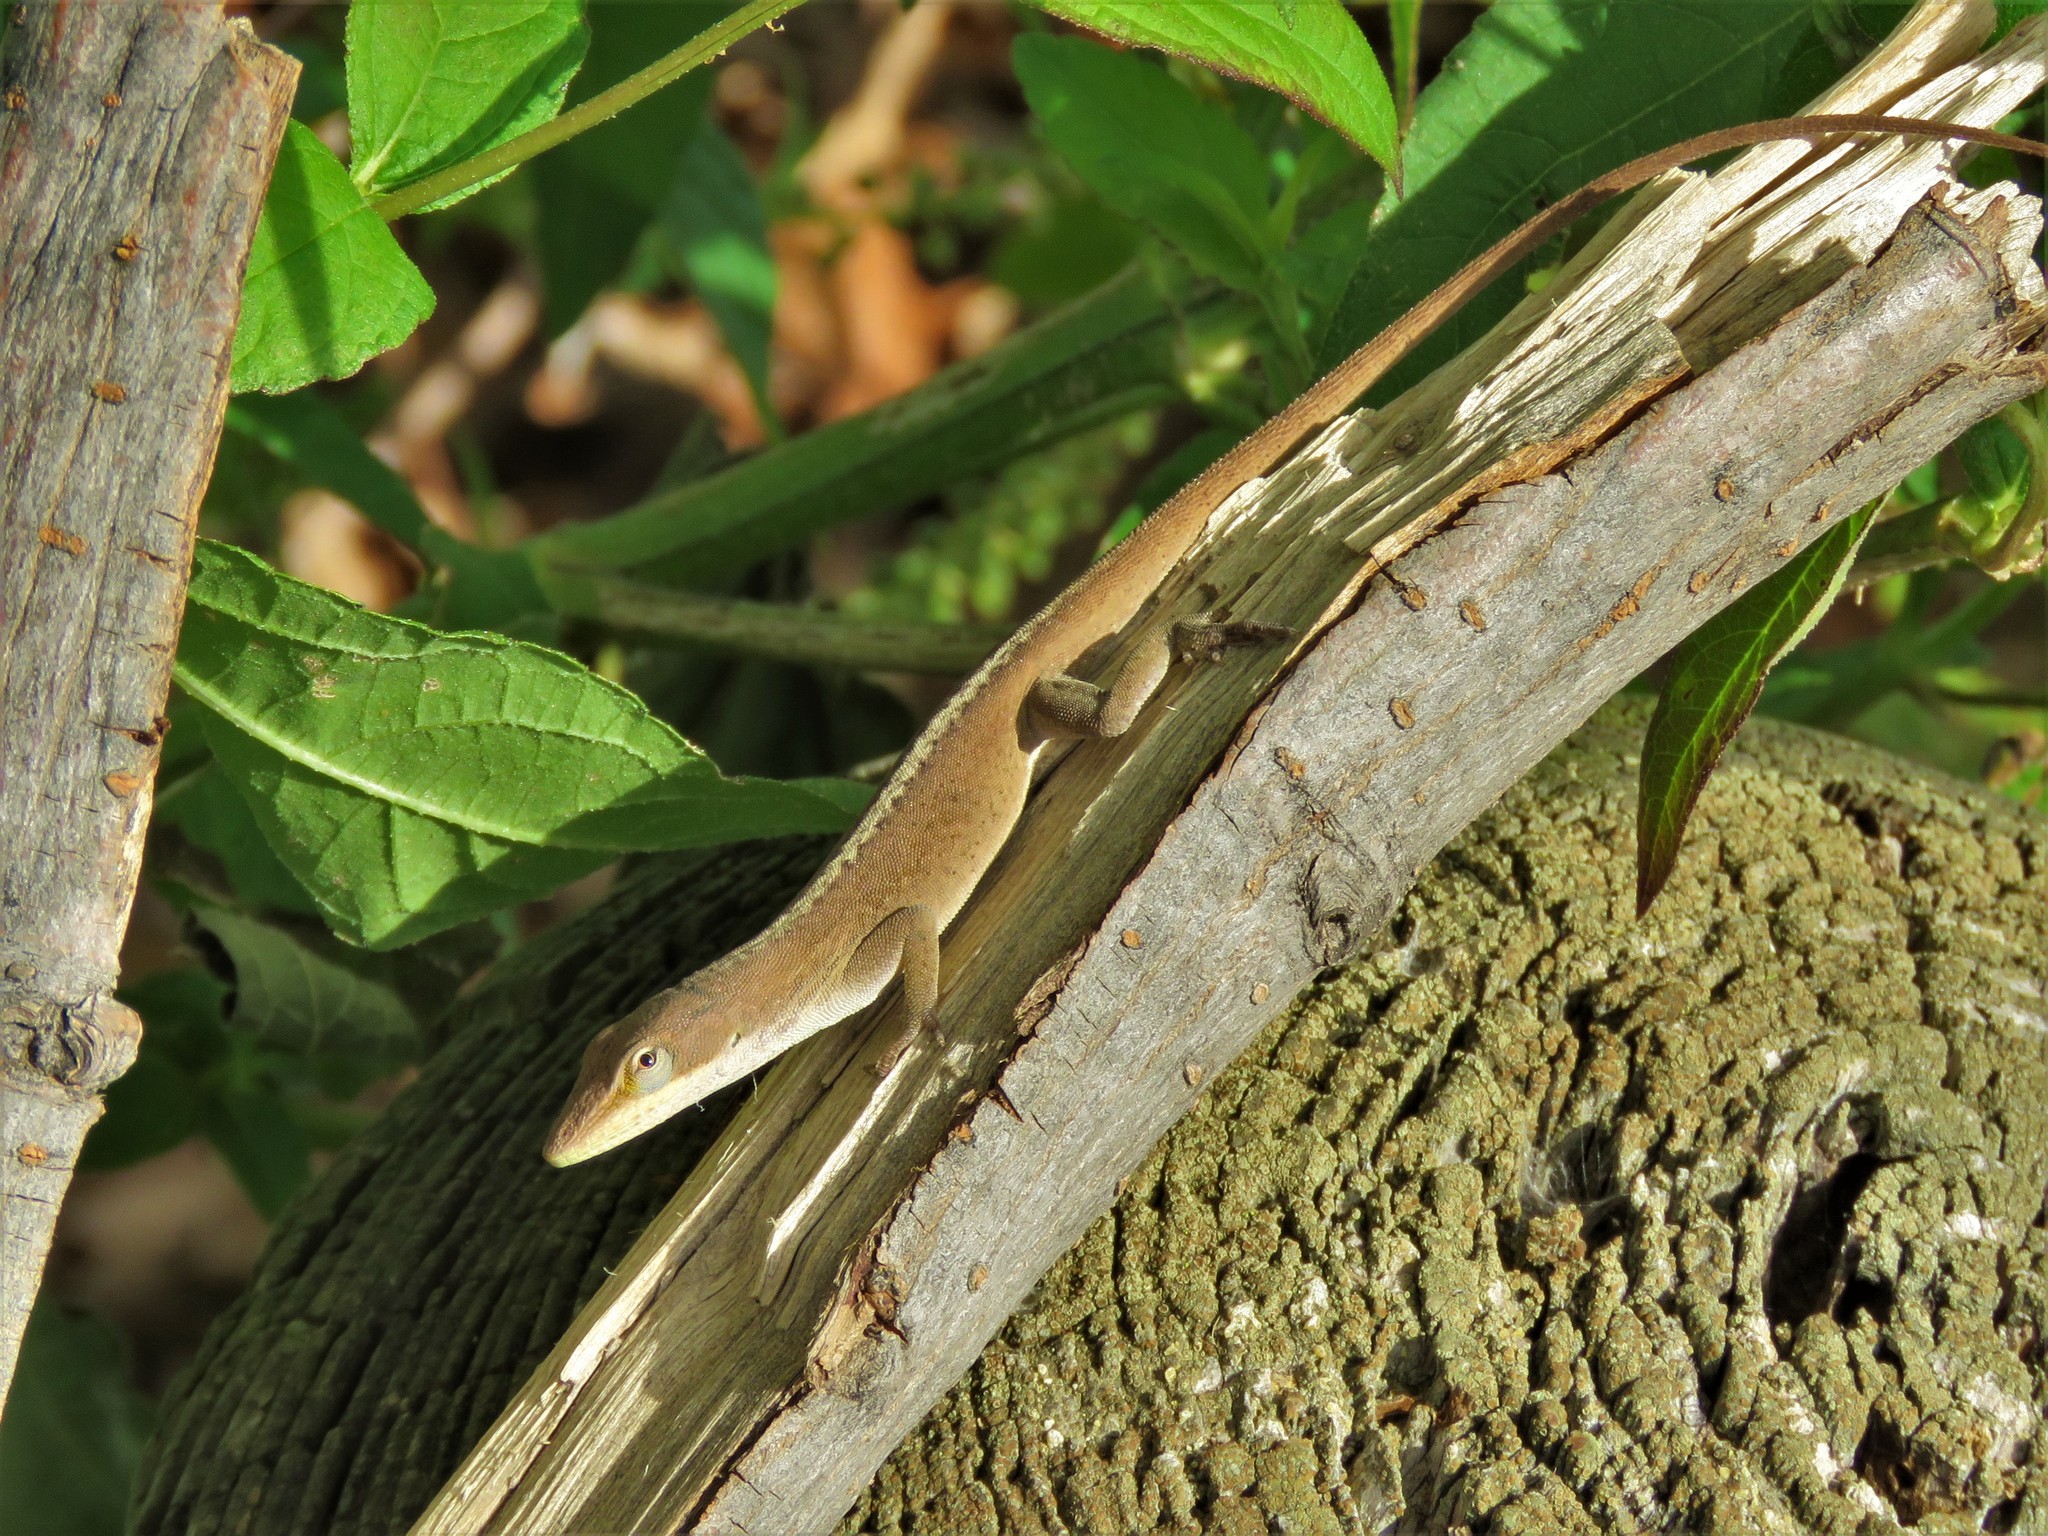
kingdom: Animalia
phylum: Chordata
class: Squamata
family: Dactyloidae
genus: Anolis
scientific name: Anolis carolinensis
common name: Green anole
